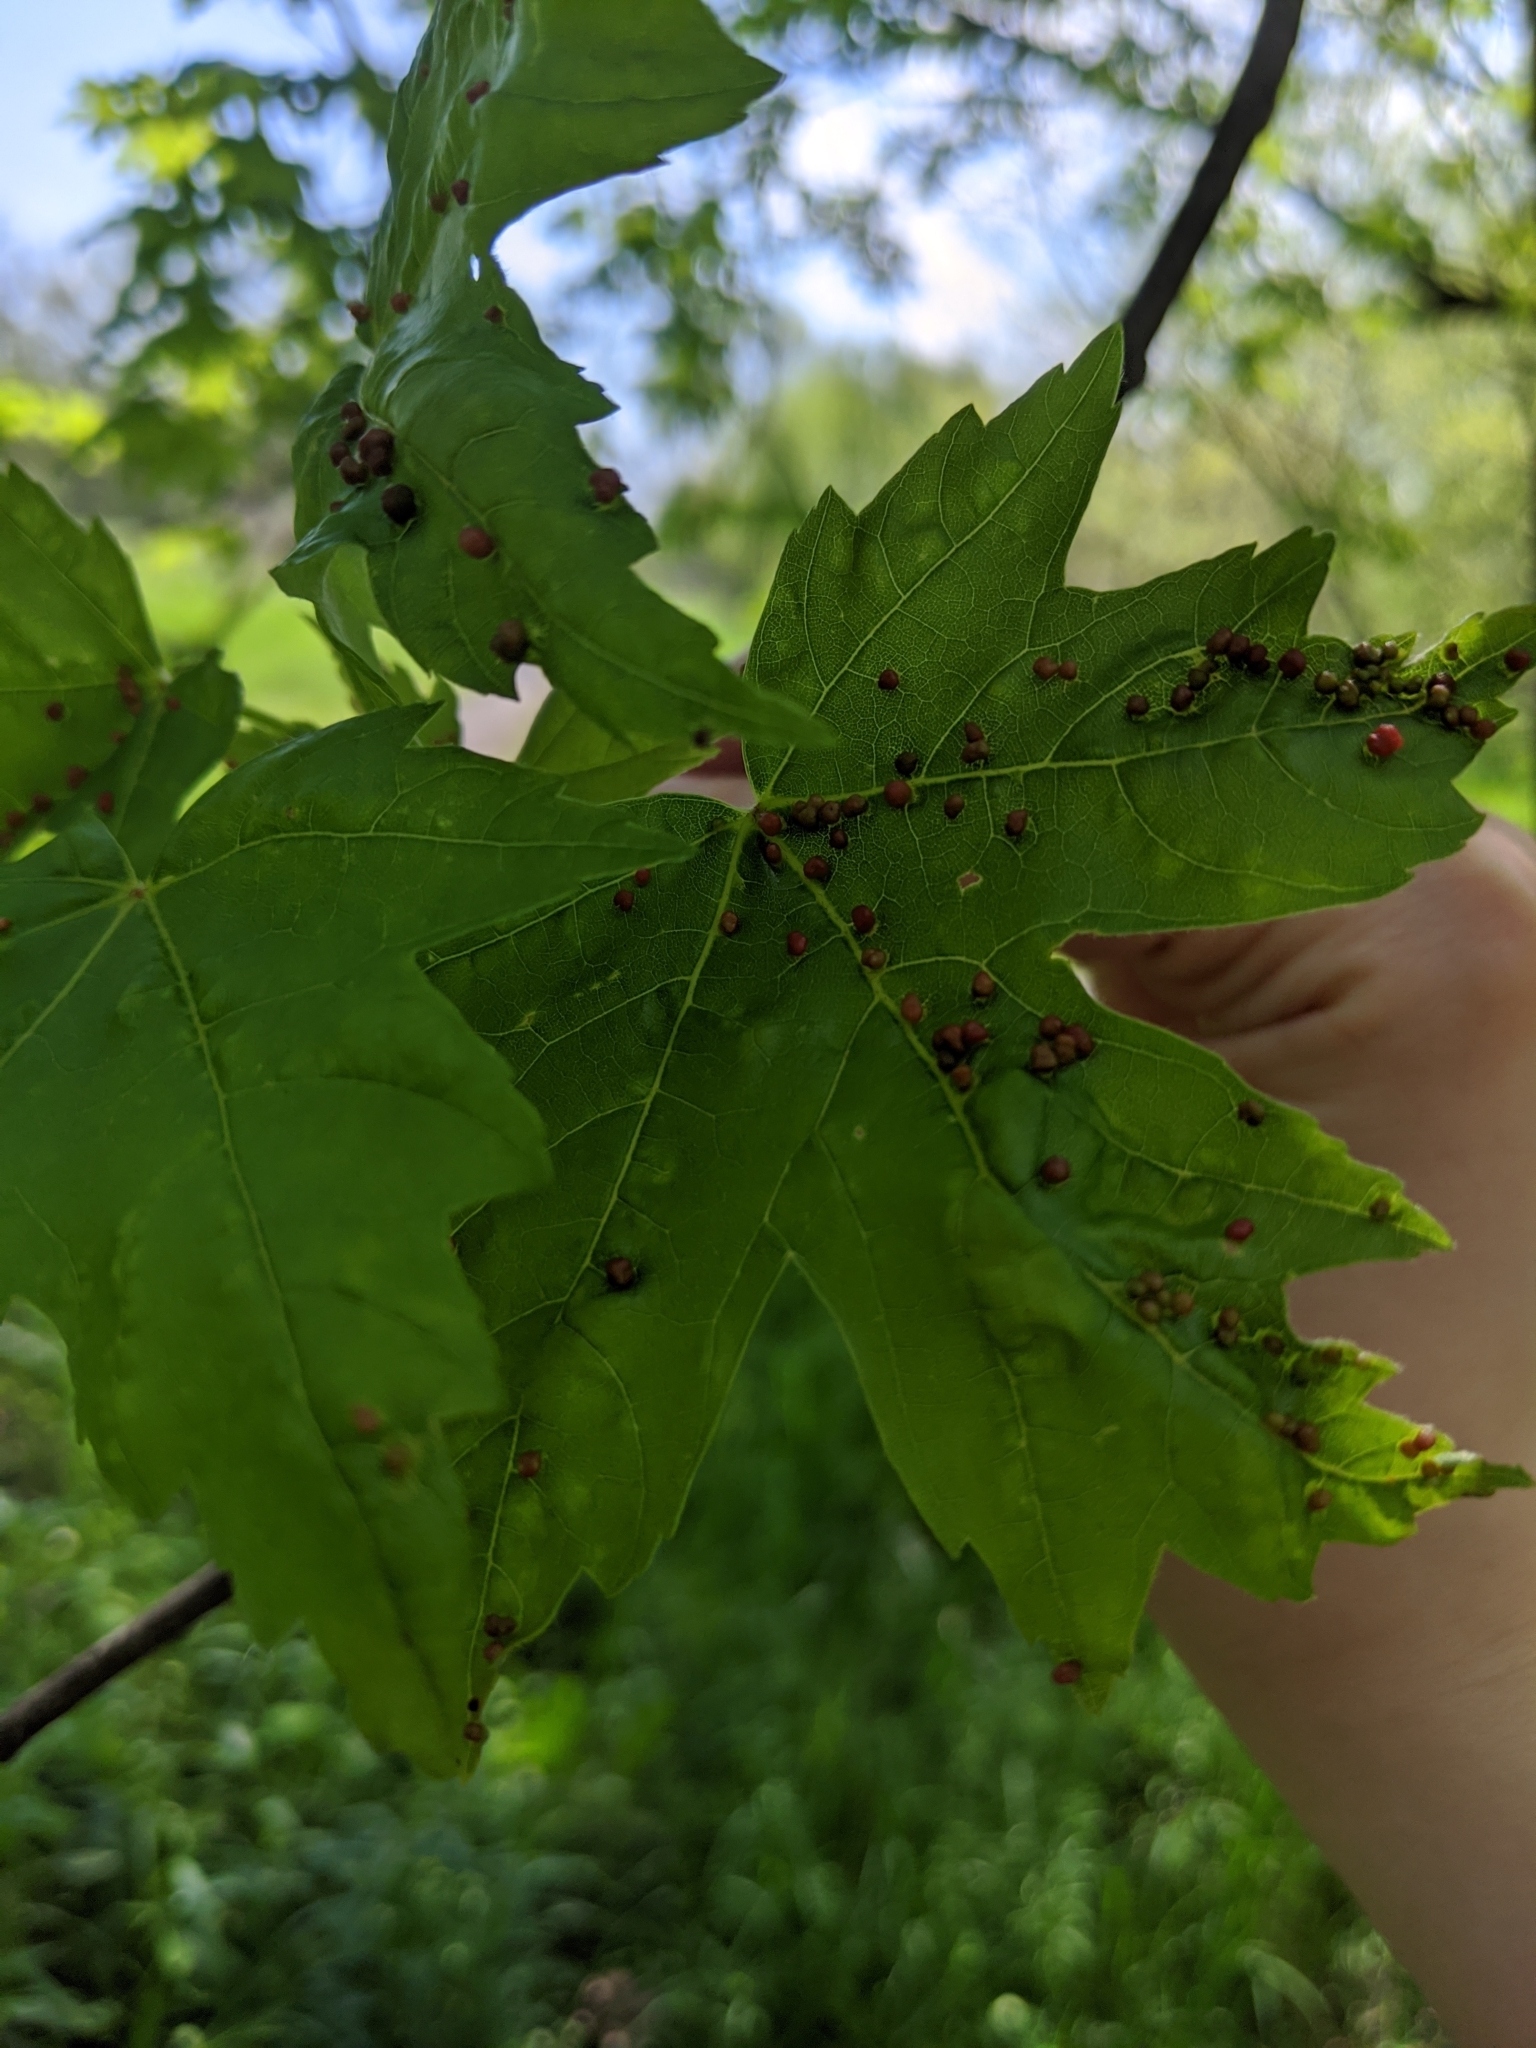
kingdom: Animalia
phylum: Arthropoda
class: Arachnida
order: Trombidiformes
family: Eriophyidae
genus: Vasates
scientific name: Vasates quadripedes
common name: Maple bladder gall mite
